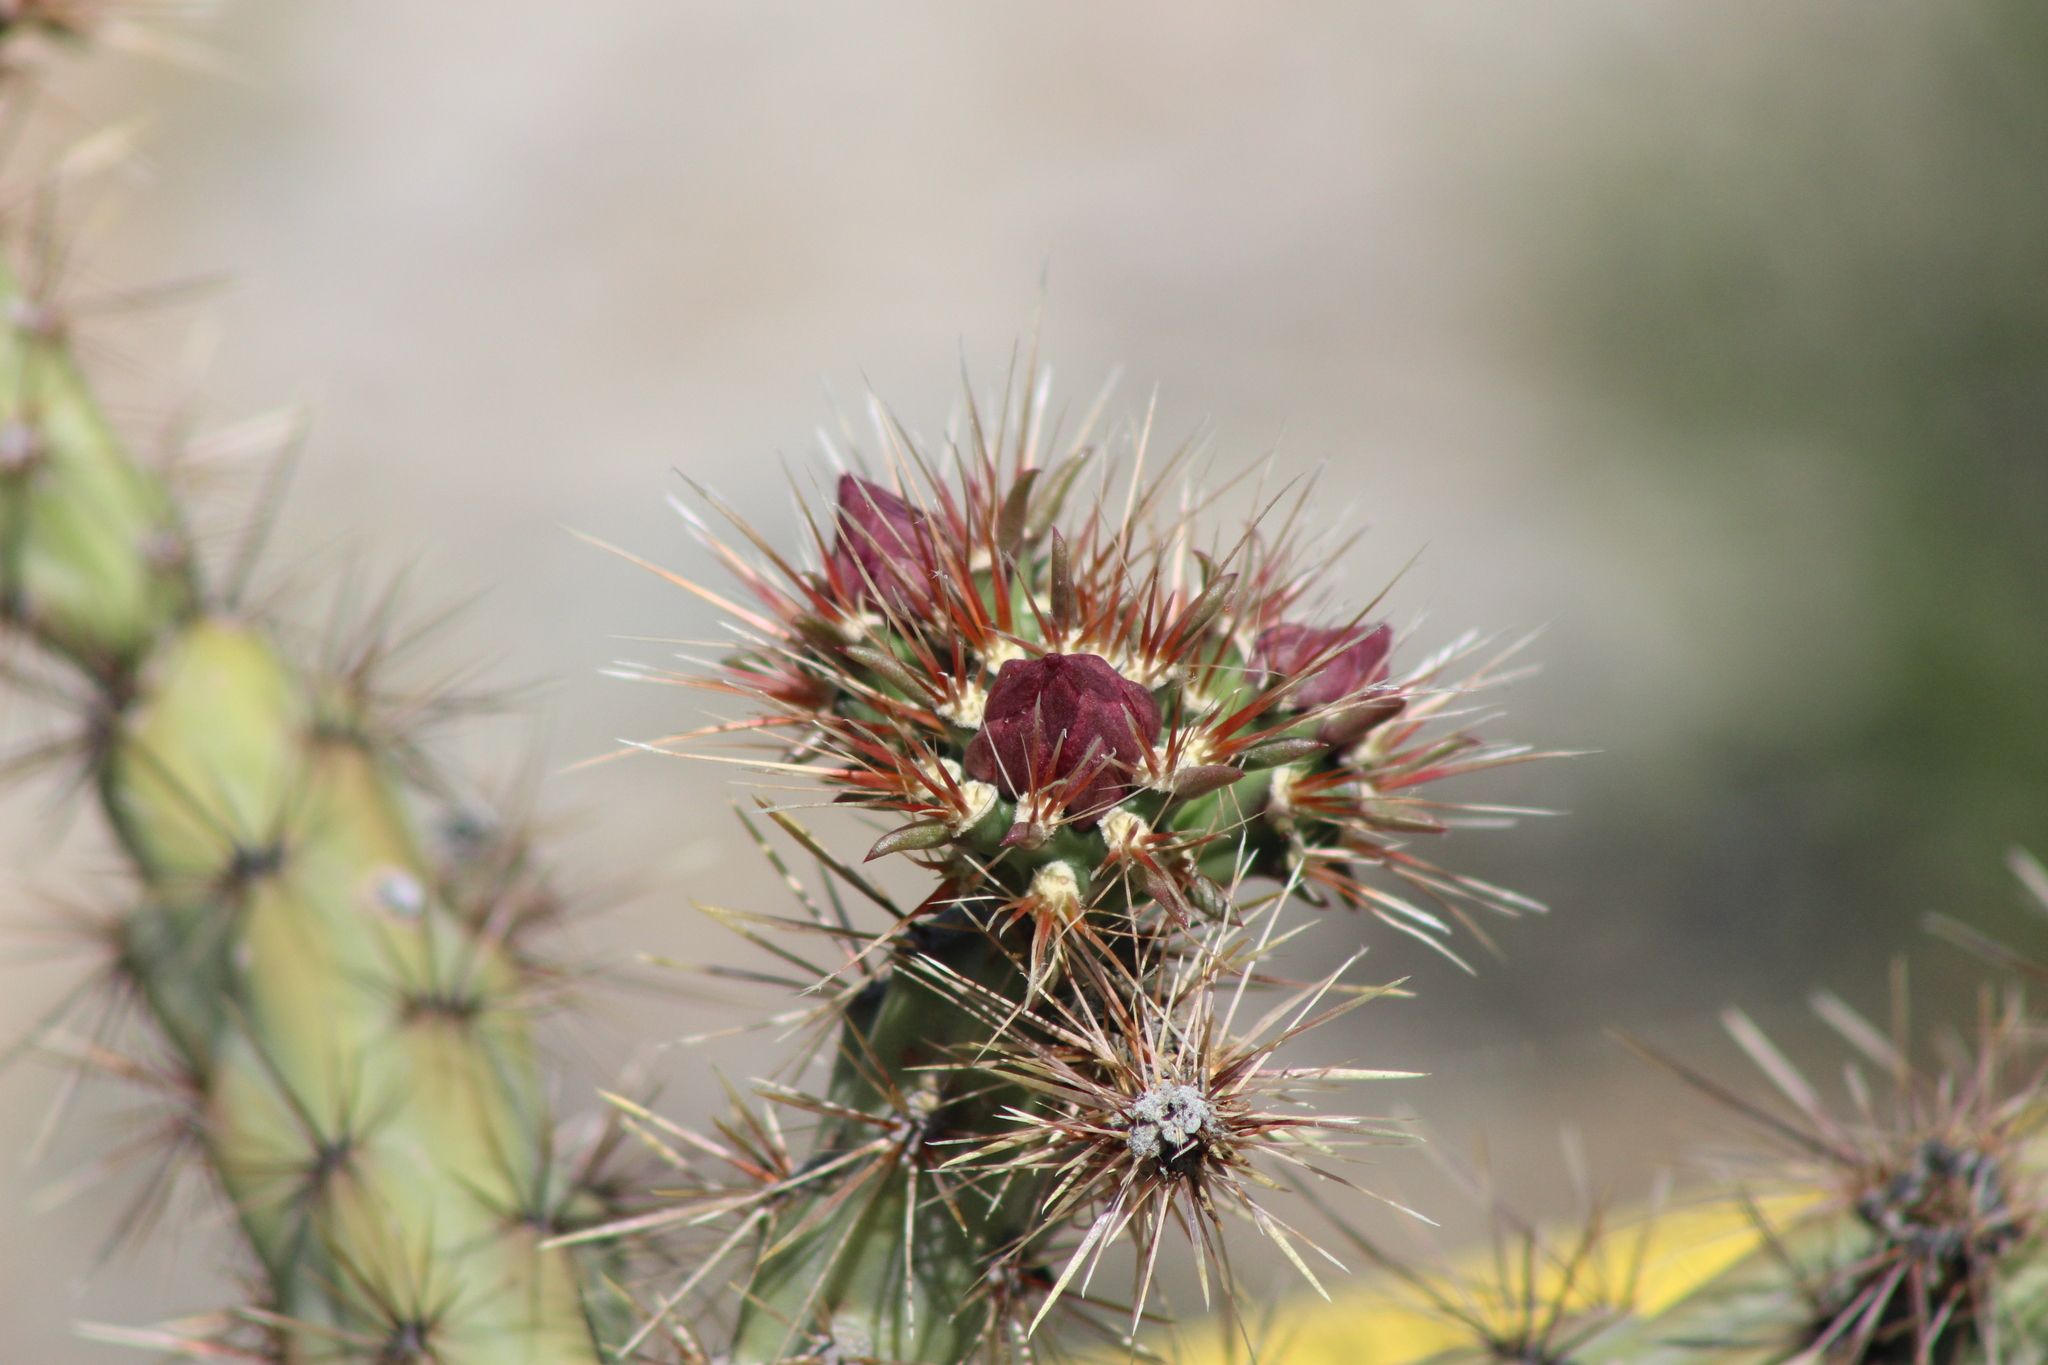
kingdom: Plantae
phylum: Tracheophyta
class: Magnoliopsida
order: Caryophyllales
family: Cactaceae
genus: Cylindropuntia
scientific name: Cylindropuntia acanthocarpa
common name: Buckhorn cholla
